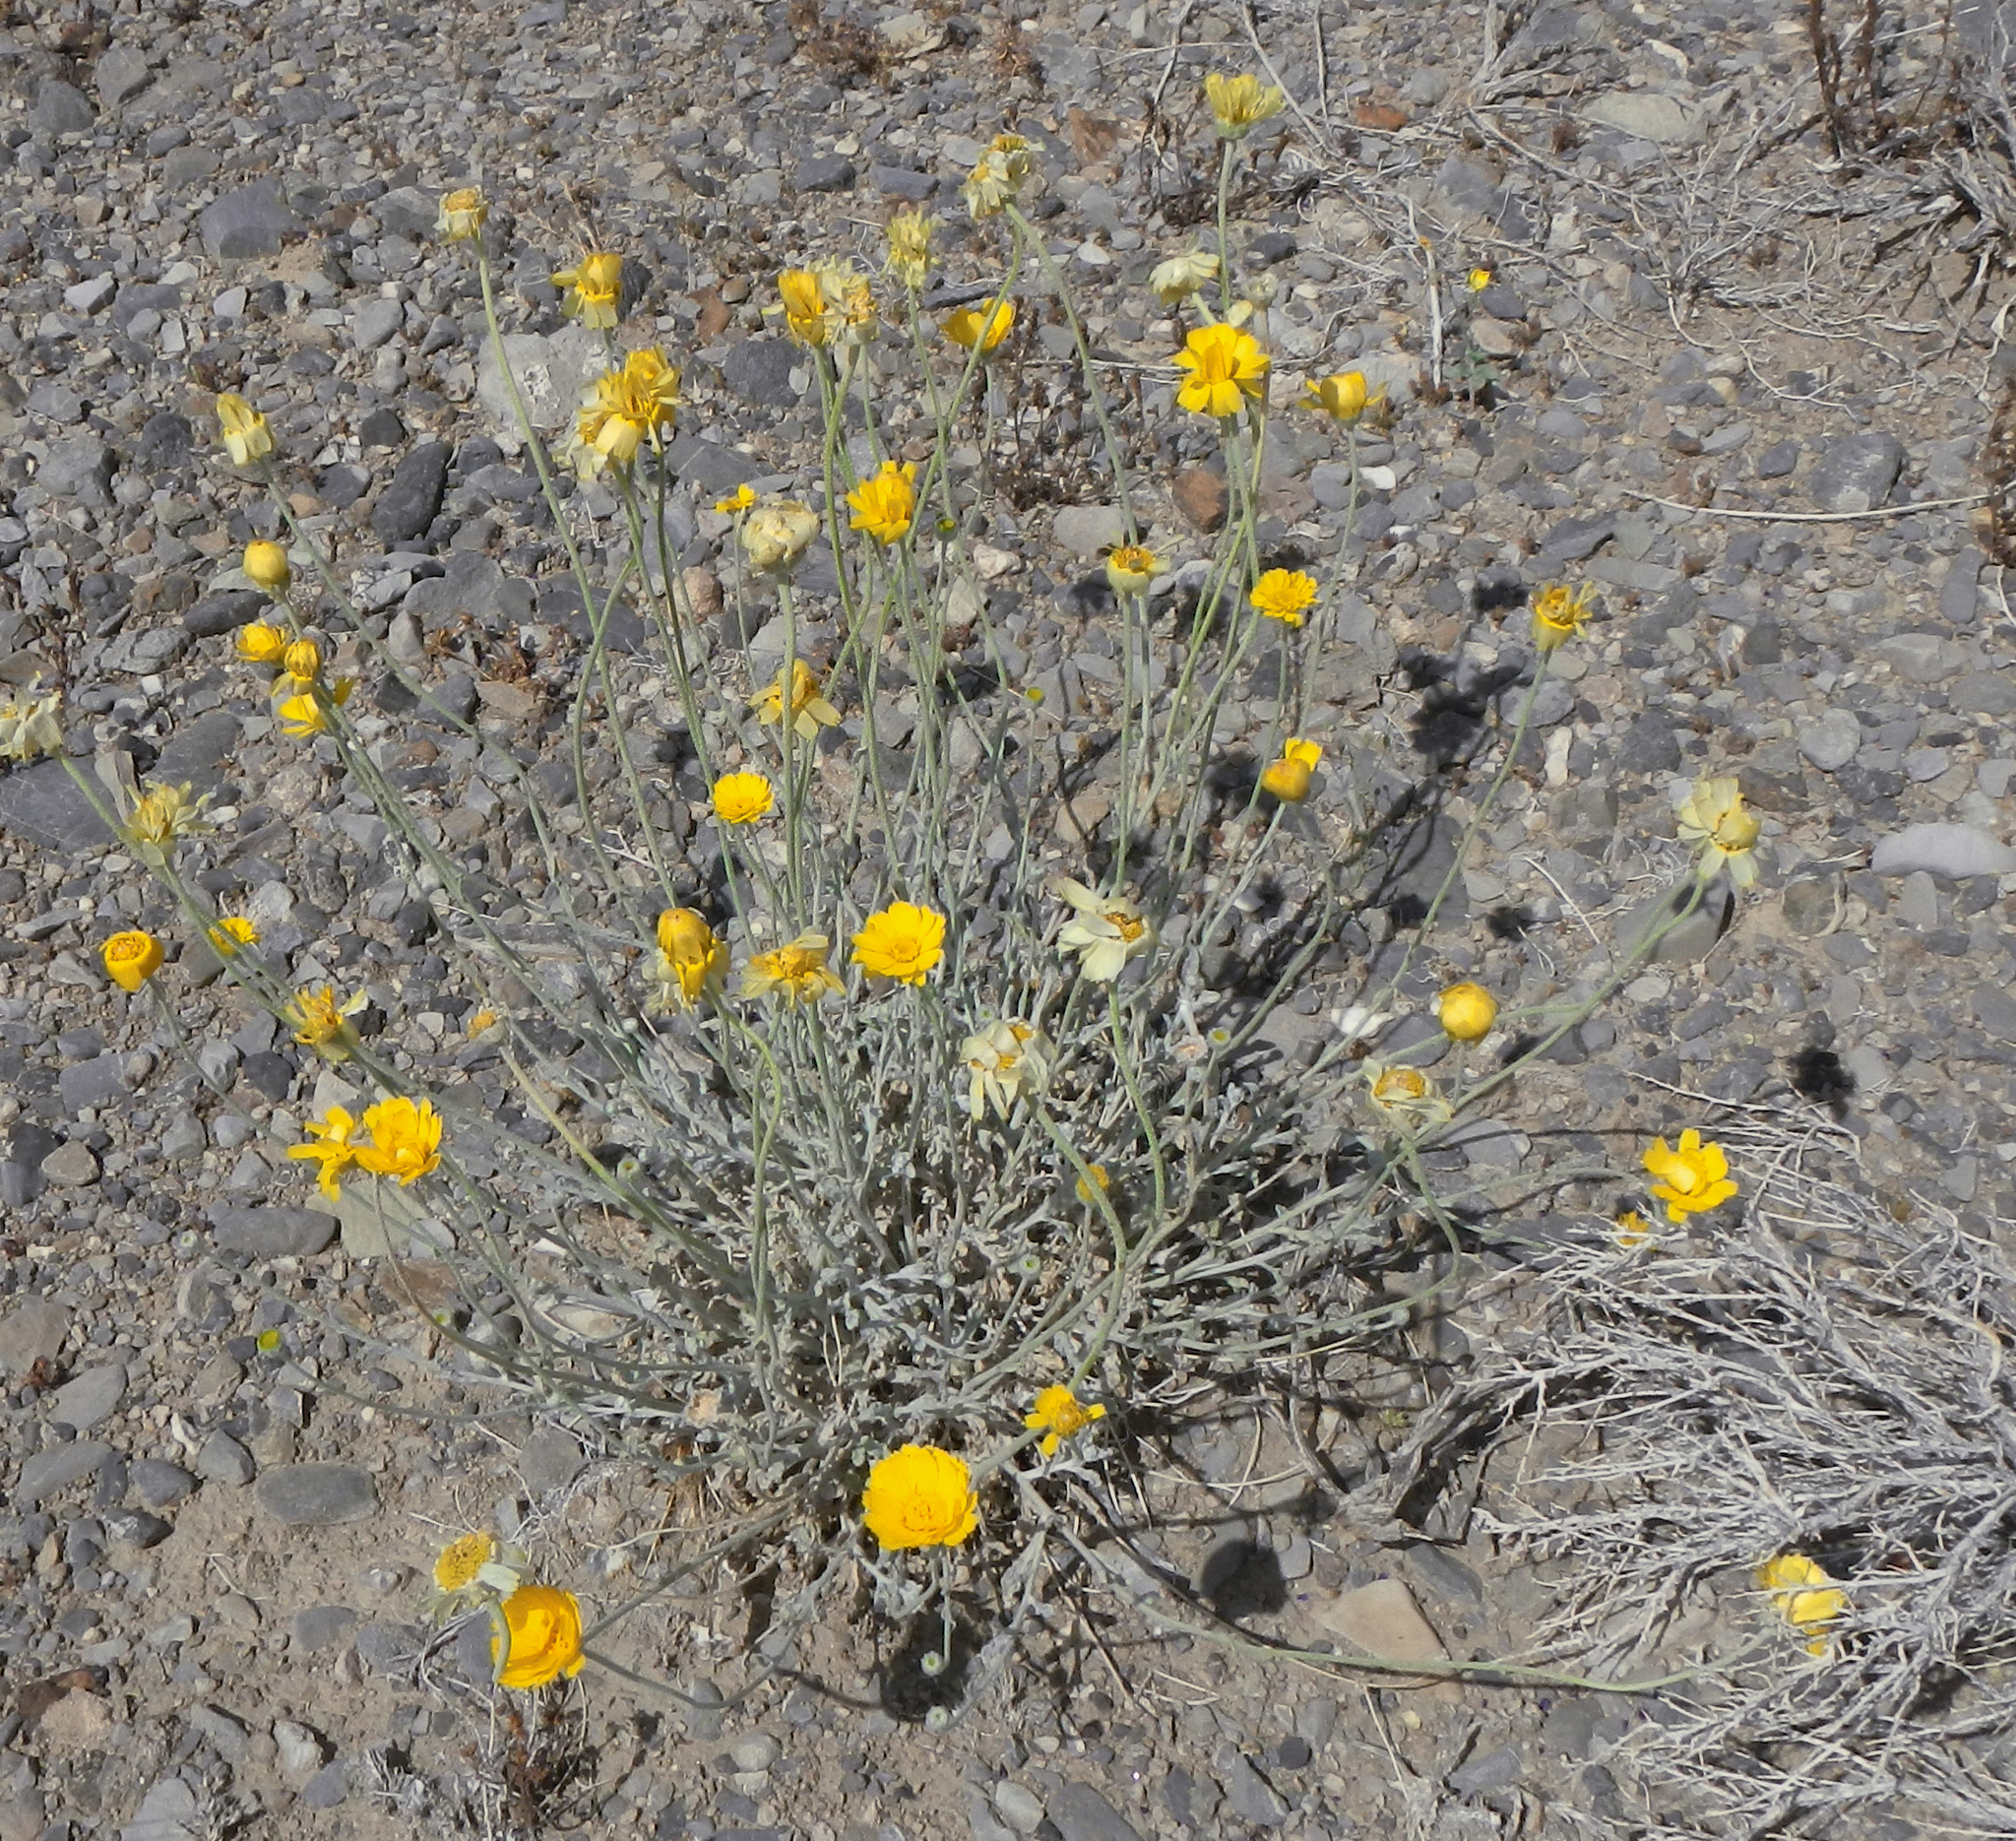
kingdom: Plantae
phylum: Tracheophyta
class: Magnoliopsida
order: Asterales
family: Asteraceae
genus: Baileya
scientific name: Baileya multiradiata
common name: Desert-marigold
